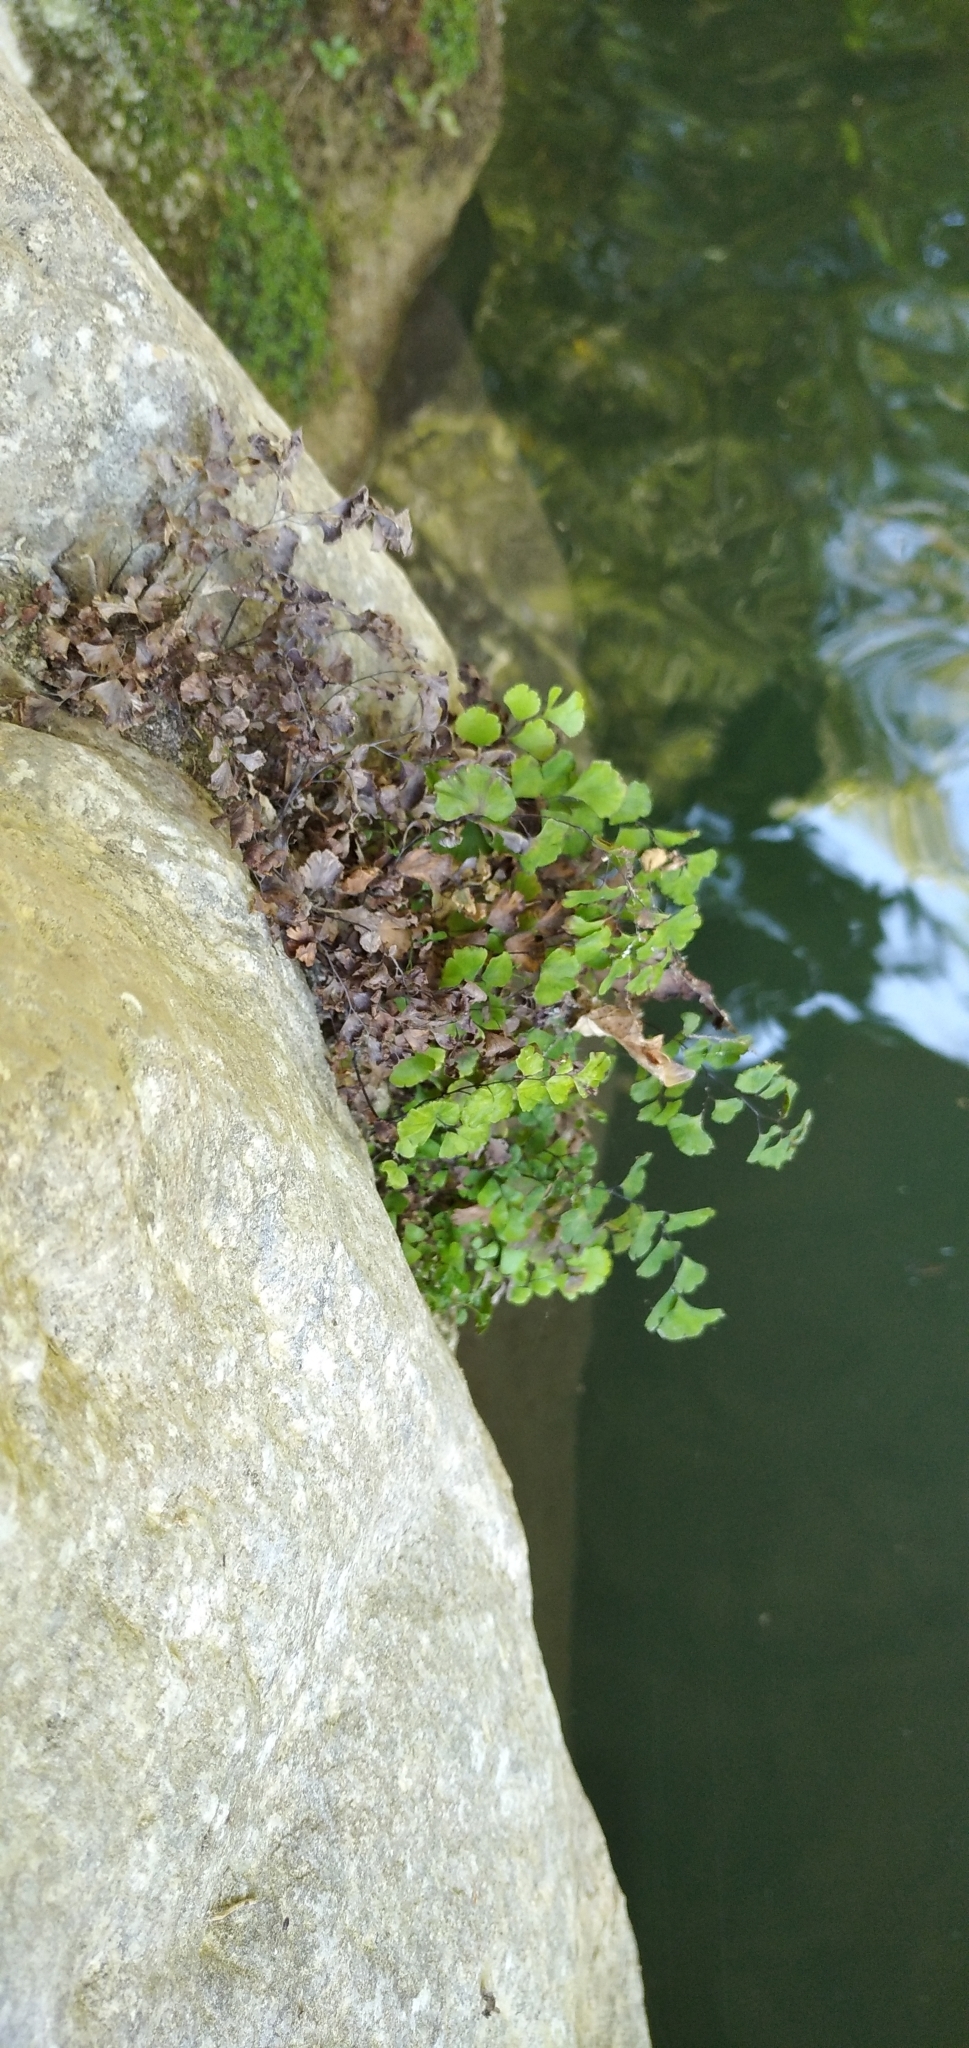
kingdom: Plantae
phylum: Tracheophyta
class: Polypodiopsida
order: Polypodiales
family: Pteridaceae
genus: Adiantum
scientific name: Adiantum capillus-veneris
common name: Maidenhair fern
